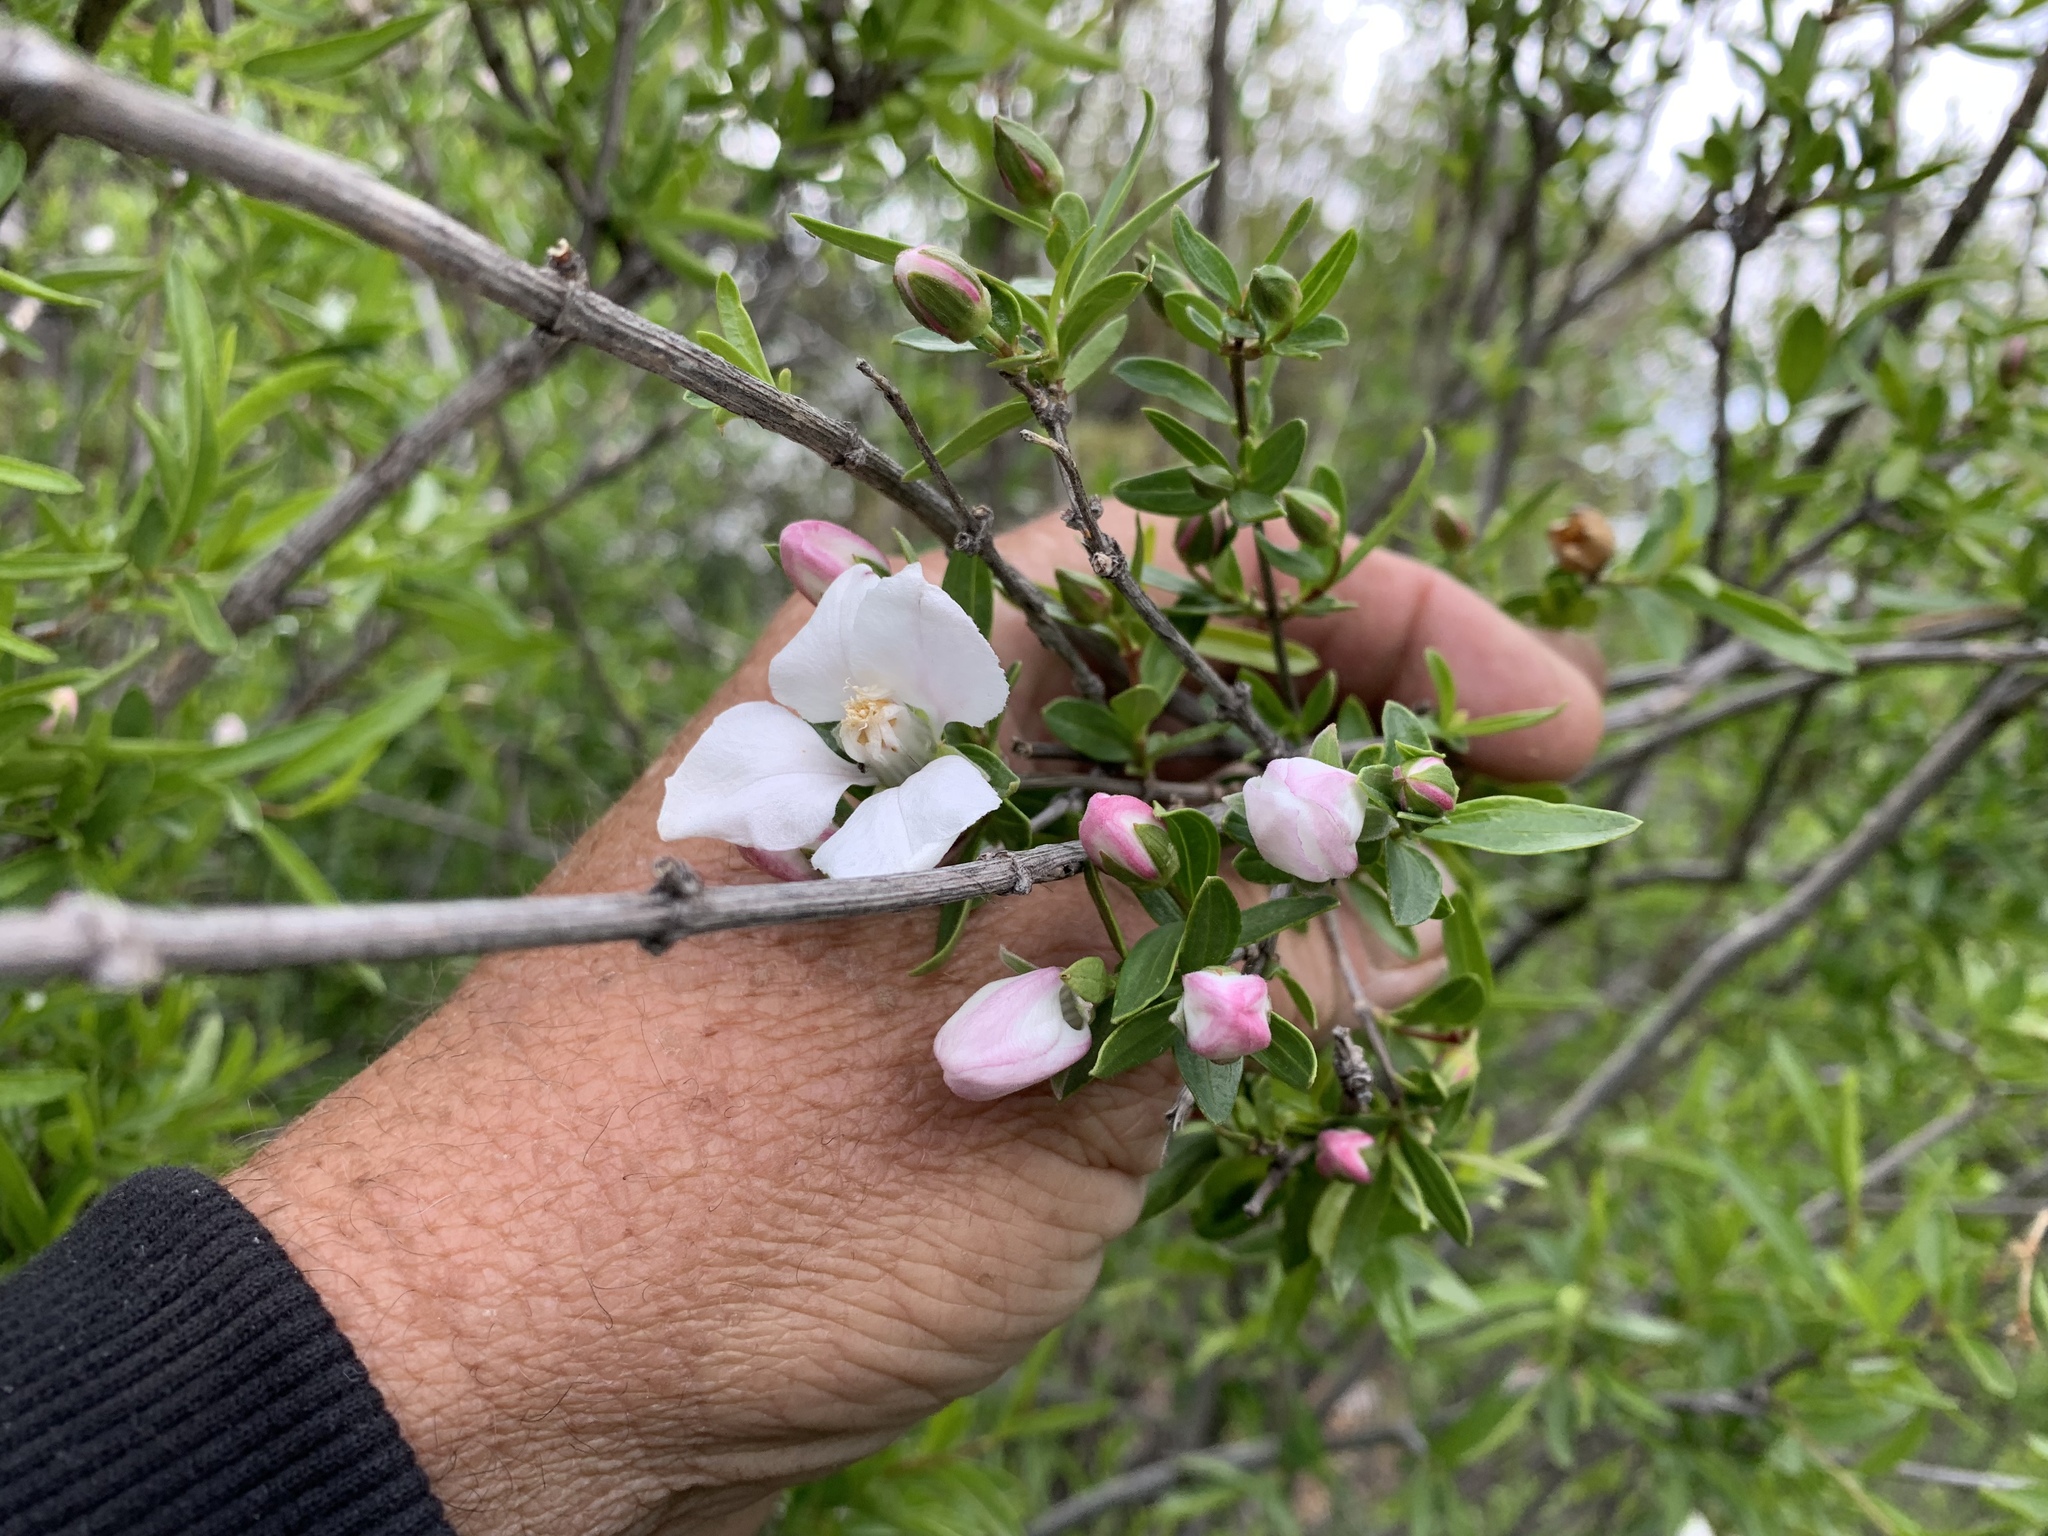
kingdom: Plantae
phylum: Tracheophyta
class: Magnoliopsida
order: Cornales
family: Hydrangeaceae
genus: Fendlera
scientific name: Fendlera rupicola
